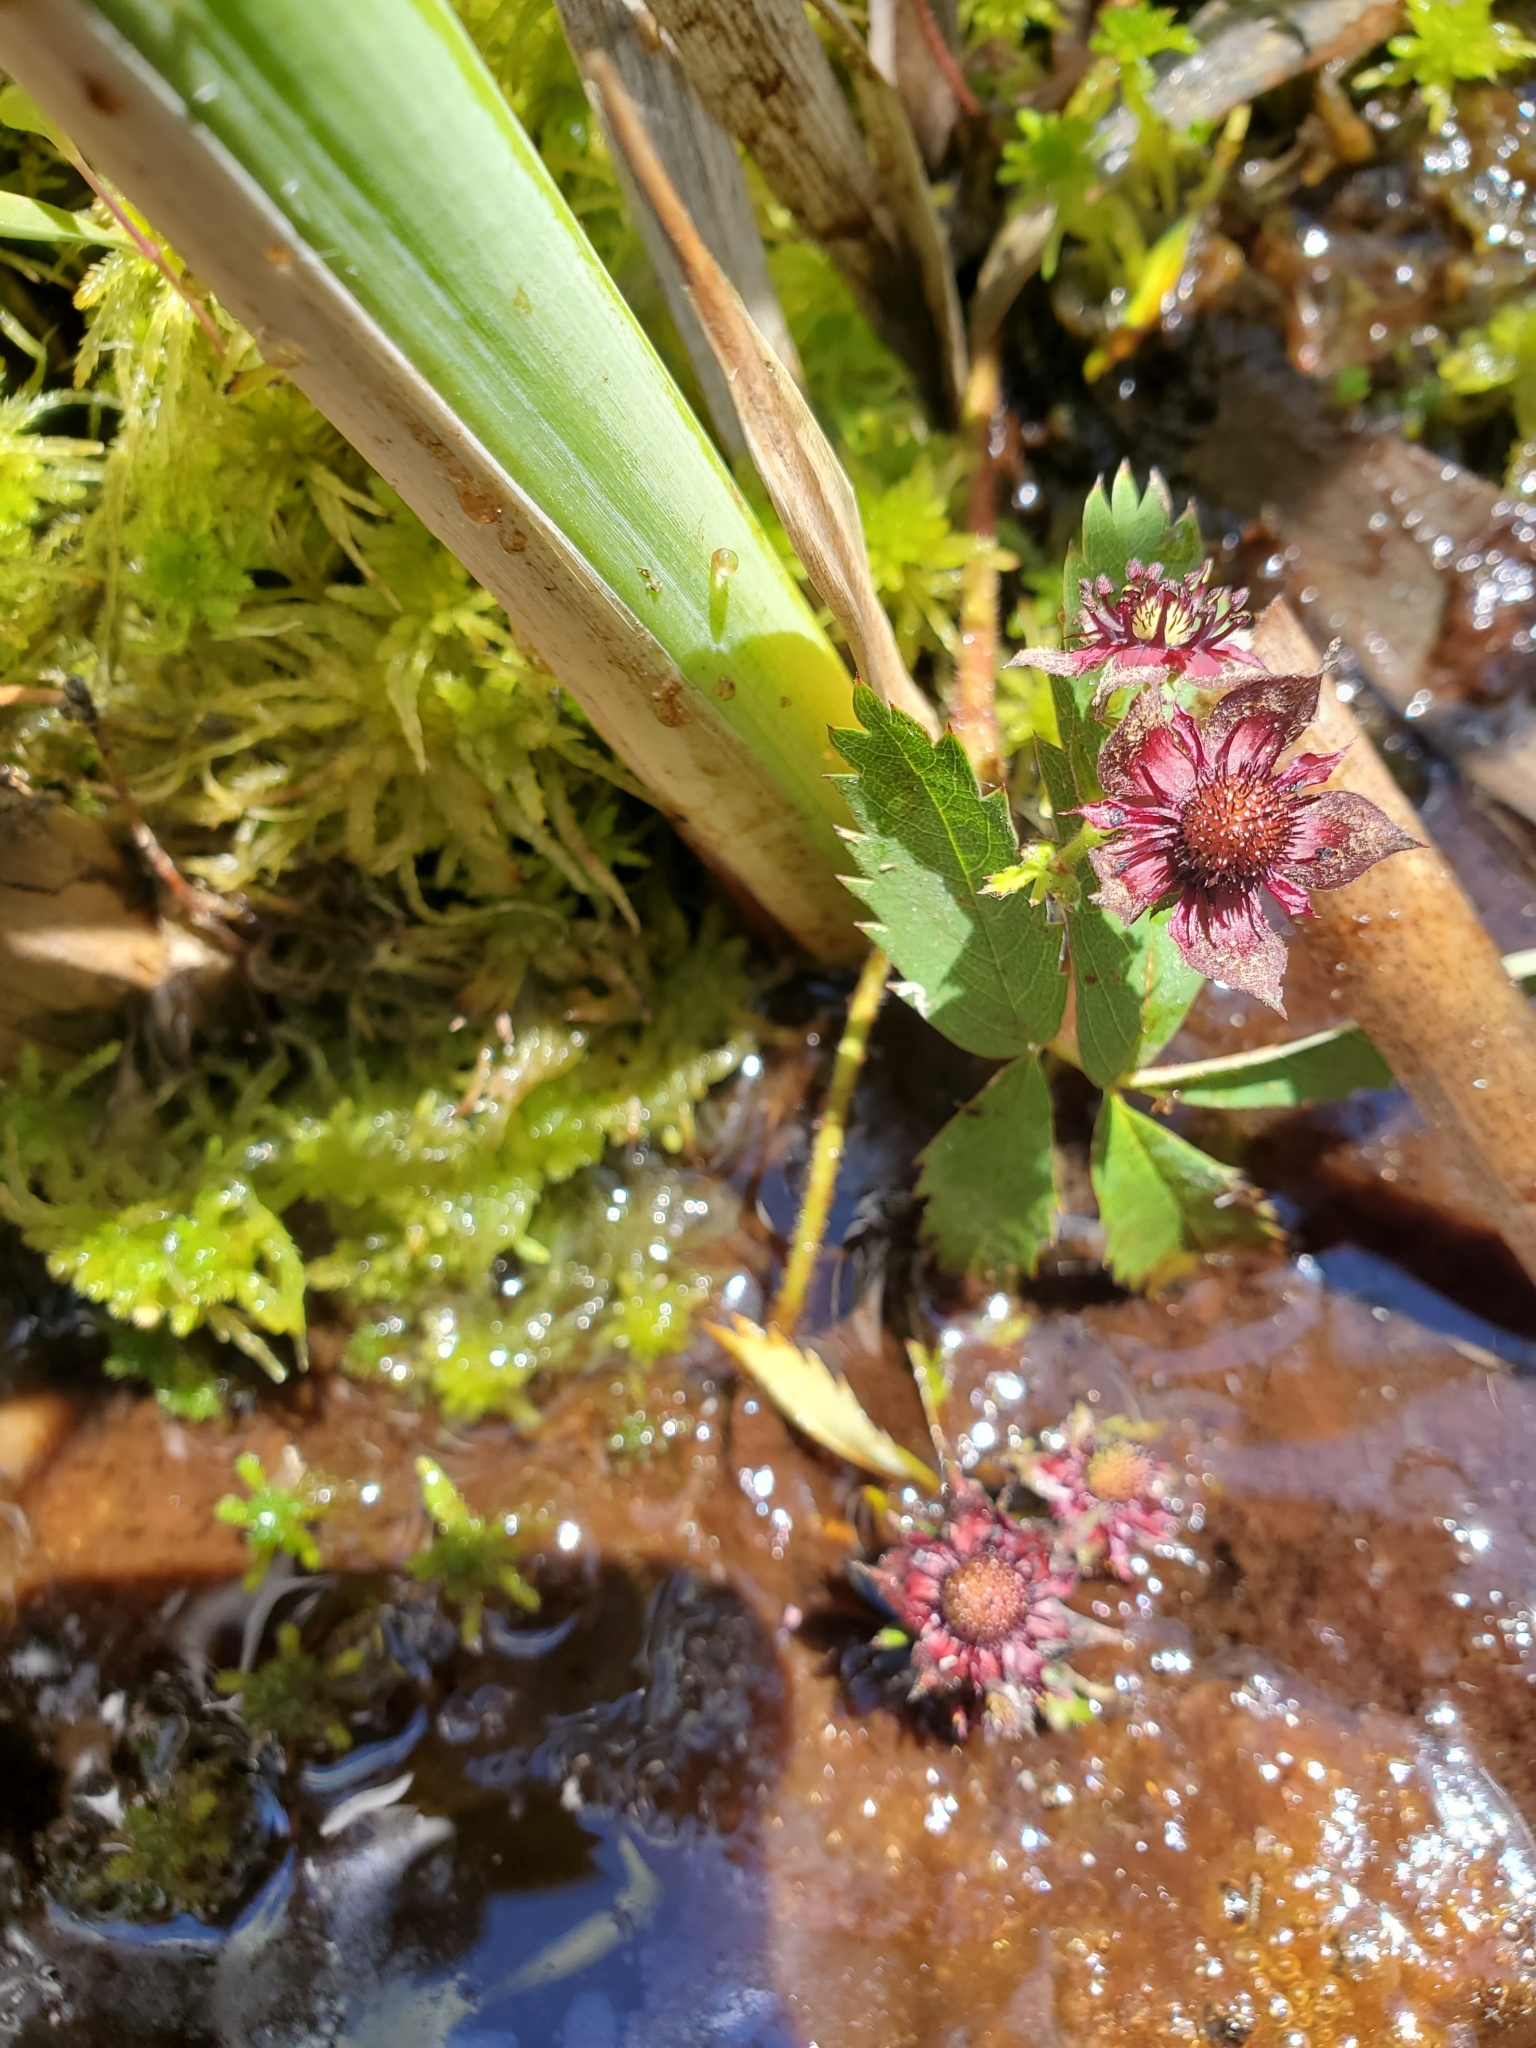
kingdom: Plantae
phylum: Tracheophyta
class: Magnoliopsida
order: Rosales
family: Rosaceae
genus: Comarum
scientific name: Comarum palustre
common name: Marsh cinquefoil
